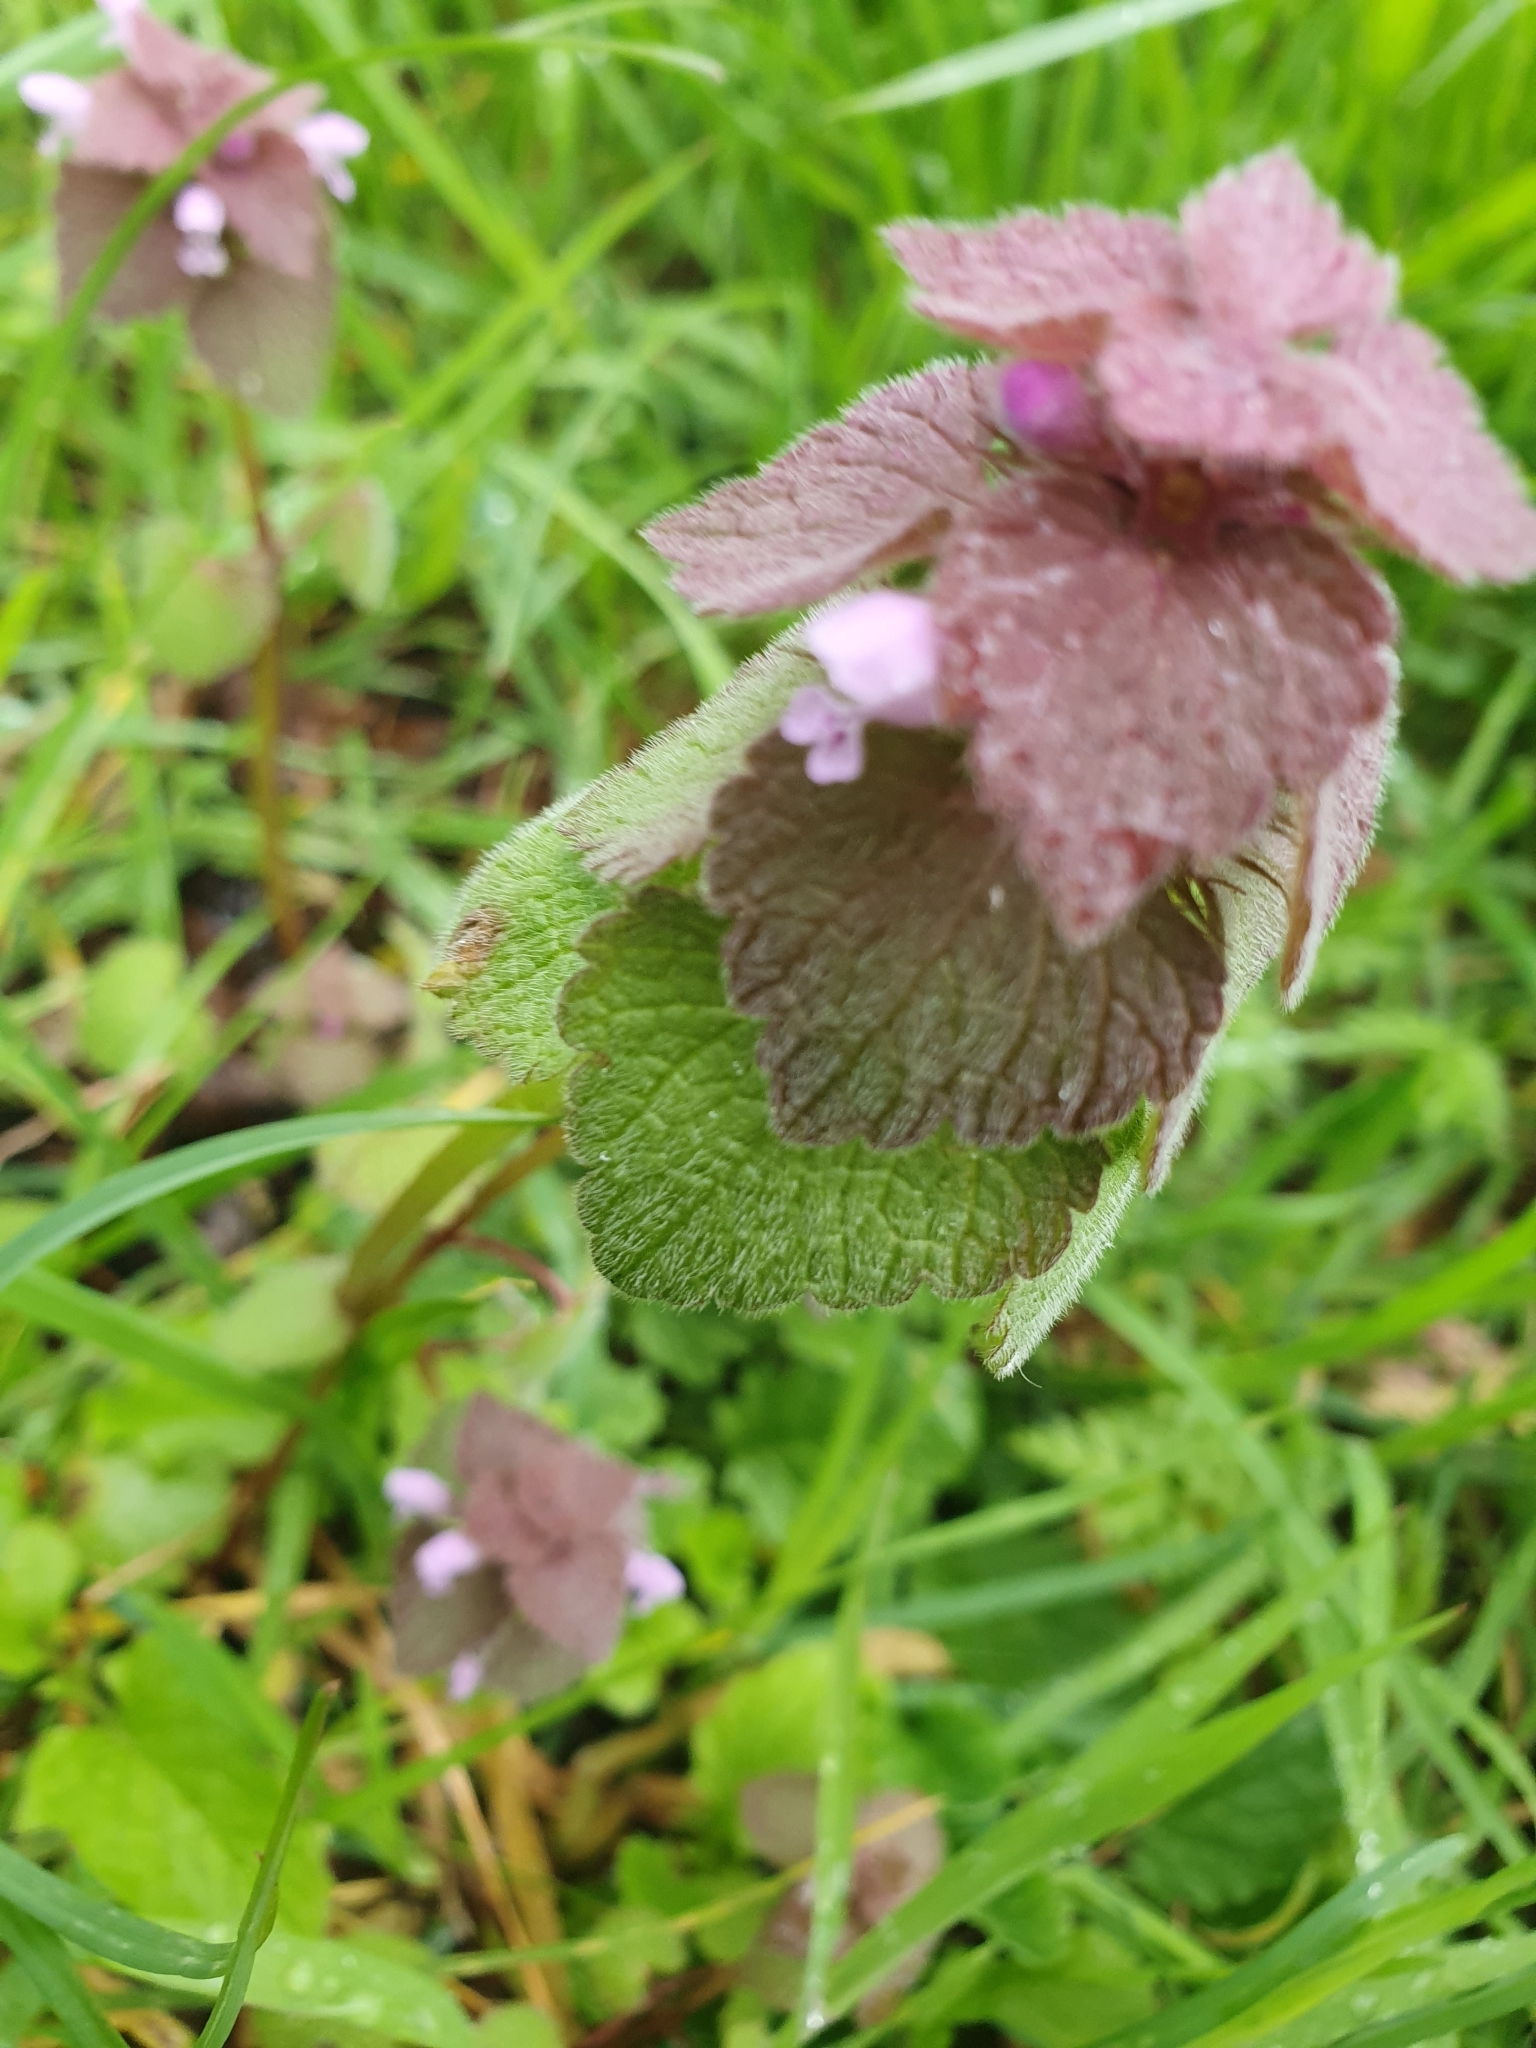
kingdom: Plantae
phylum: Tracheophyta
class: Magnoliopsida
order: Lamiales
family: Lamiaceae
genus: Lamium
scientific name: Lamium purpureum
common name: Red dead-nettle
